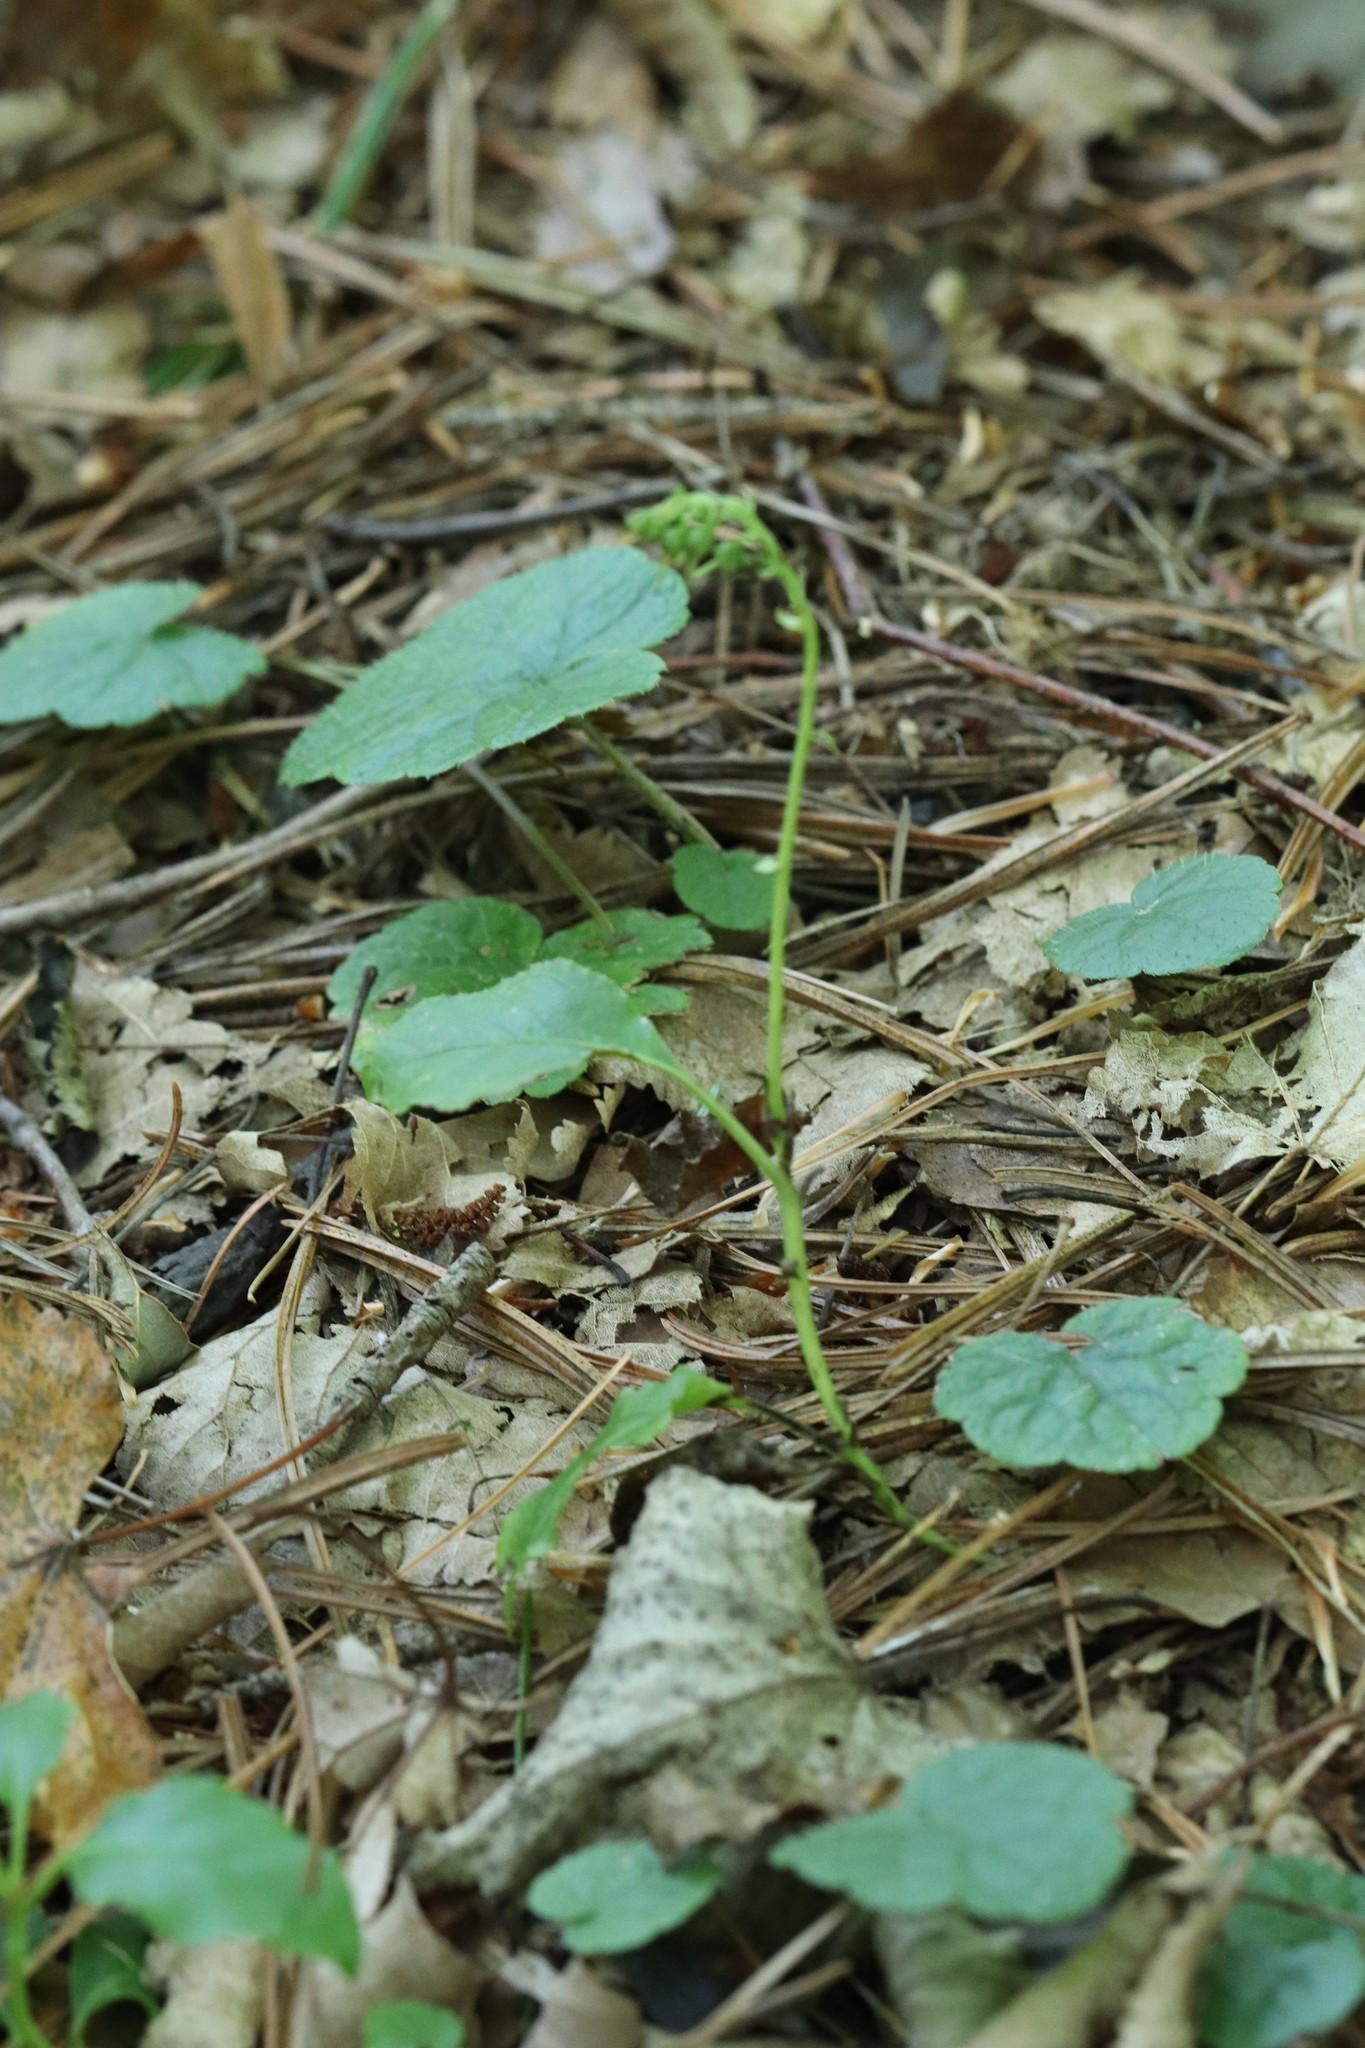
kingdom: Plantae
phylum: Tracheophyta
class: Magnoliopsida
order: Ericales
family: Ericaceae
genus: Orthilia
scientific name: Orthilia secunda
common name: One-sided orthilia
